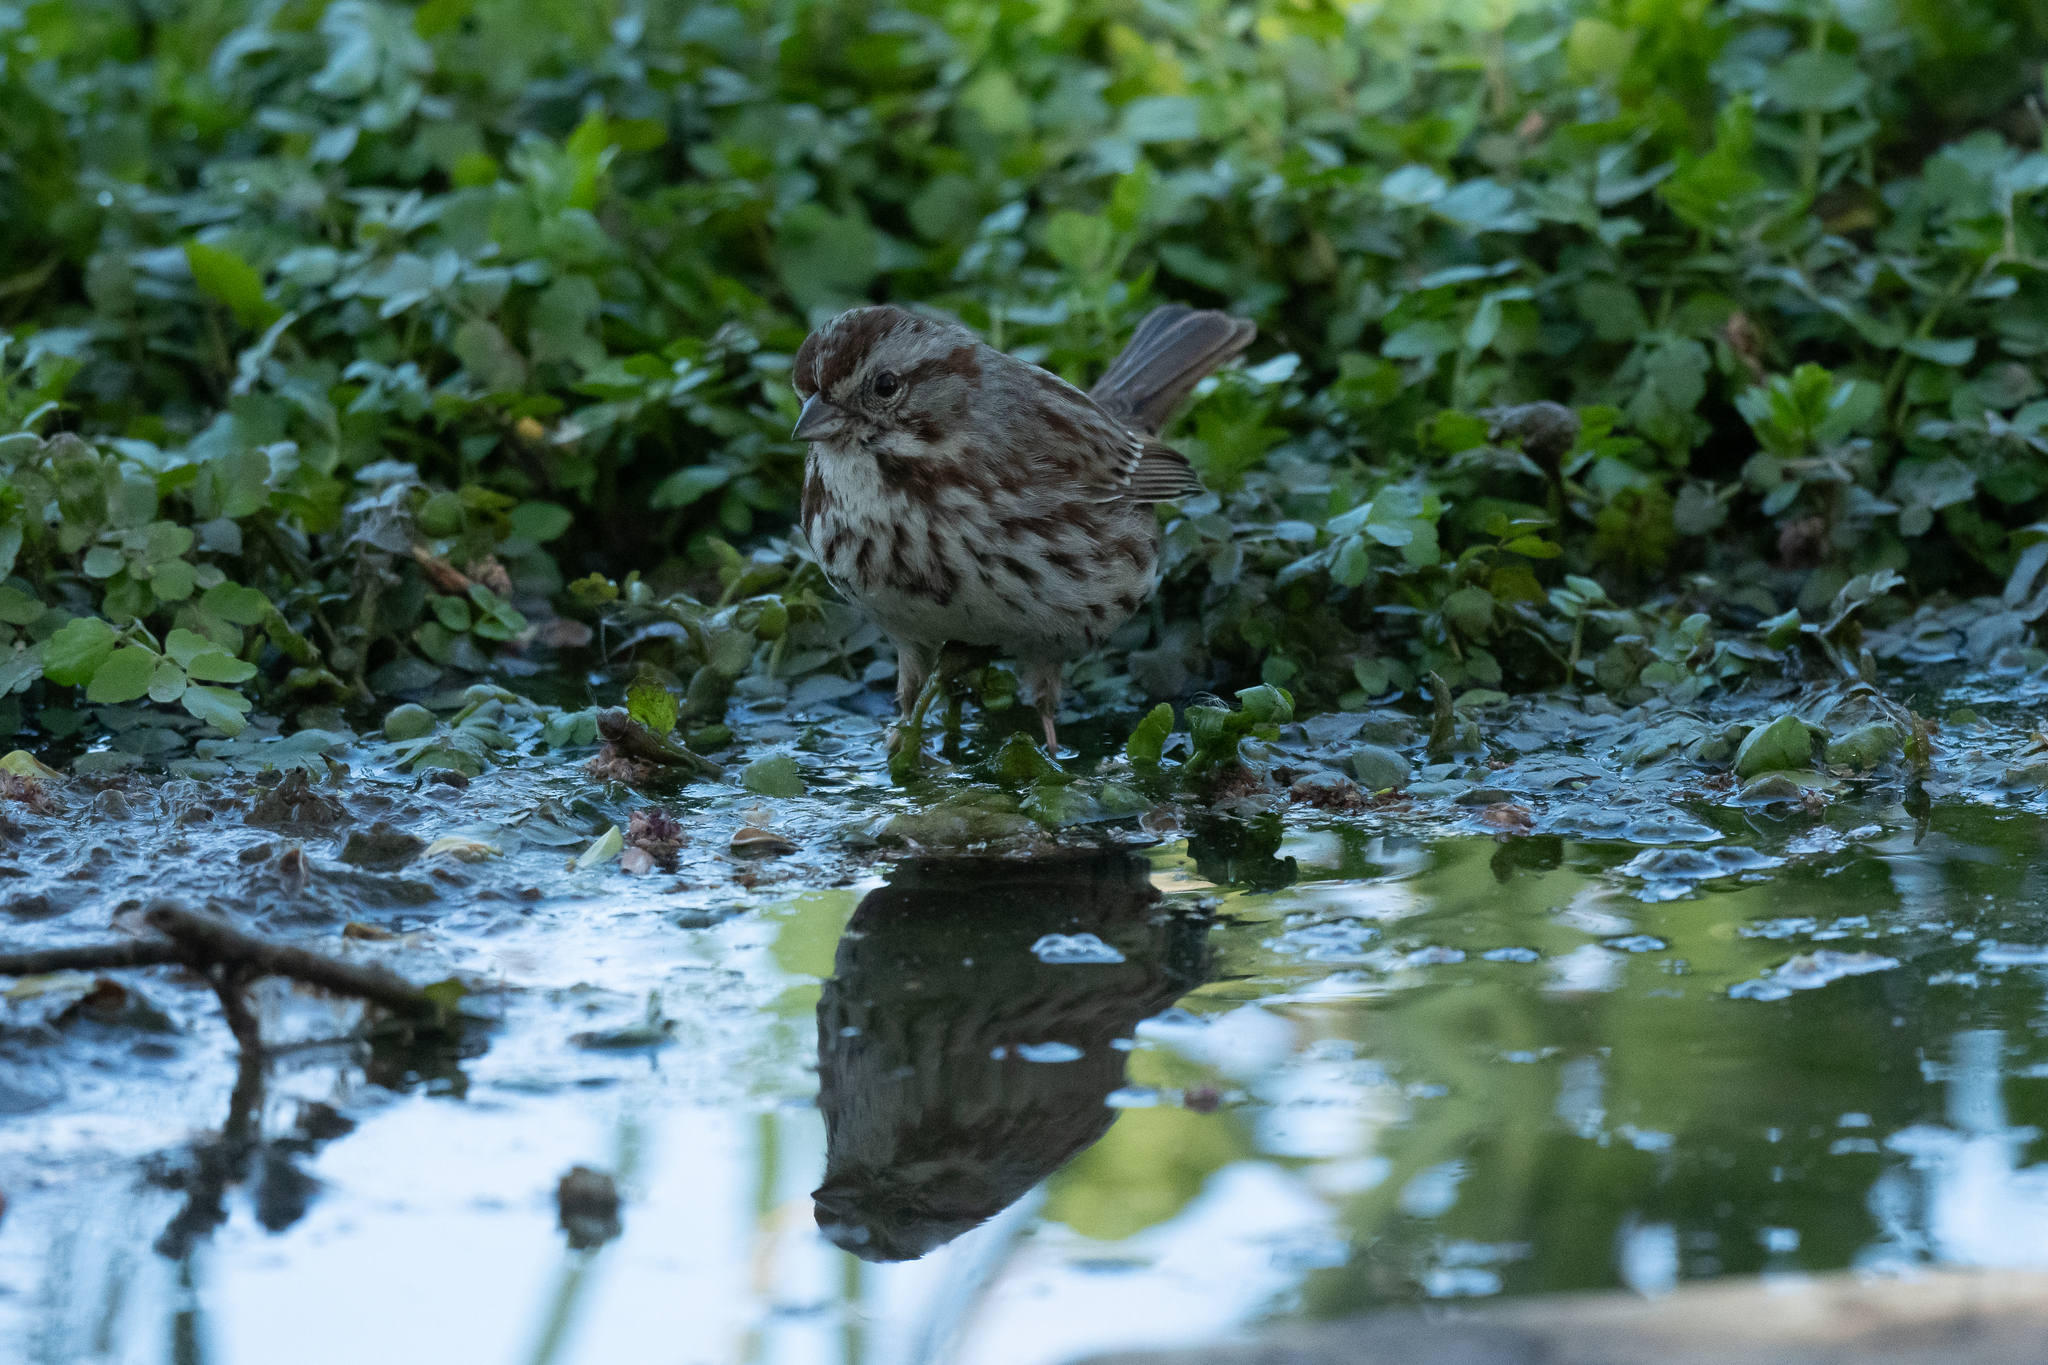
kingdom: Animalia
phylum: Chordata
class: Aves
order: Passeriformes
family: Passerellidae
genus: Melospiza
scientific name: Melospiza melodia
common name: Song sparrow
